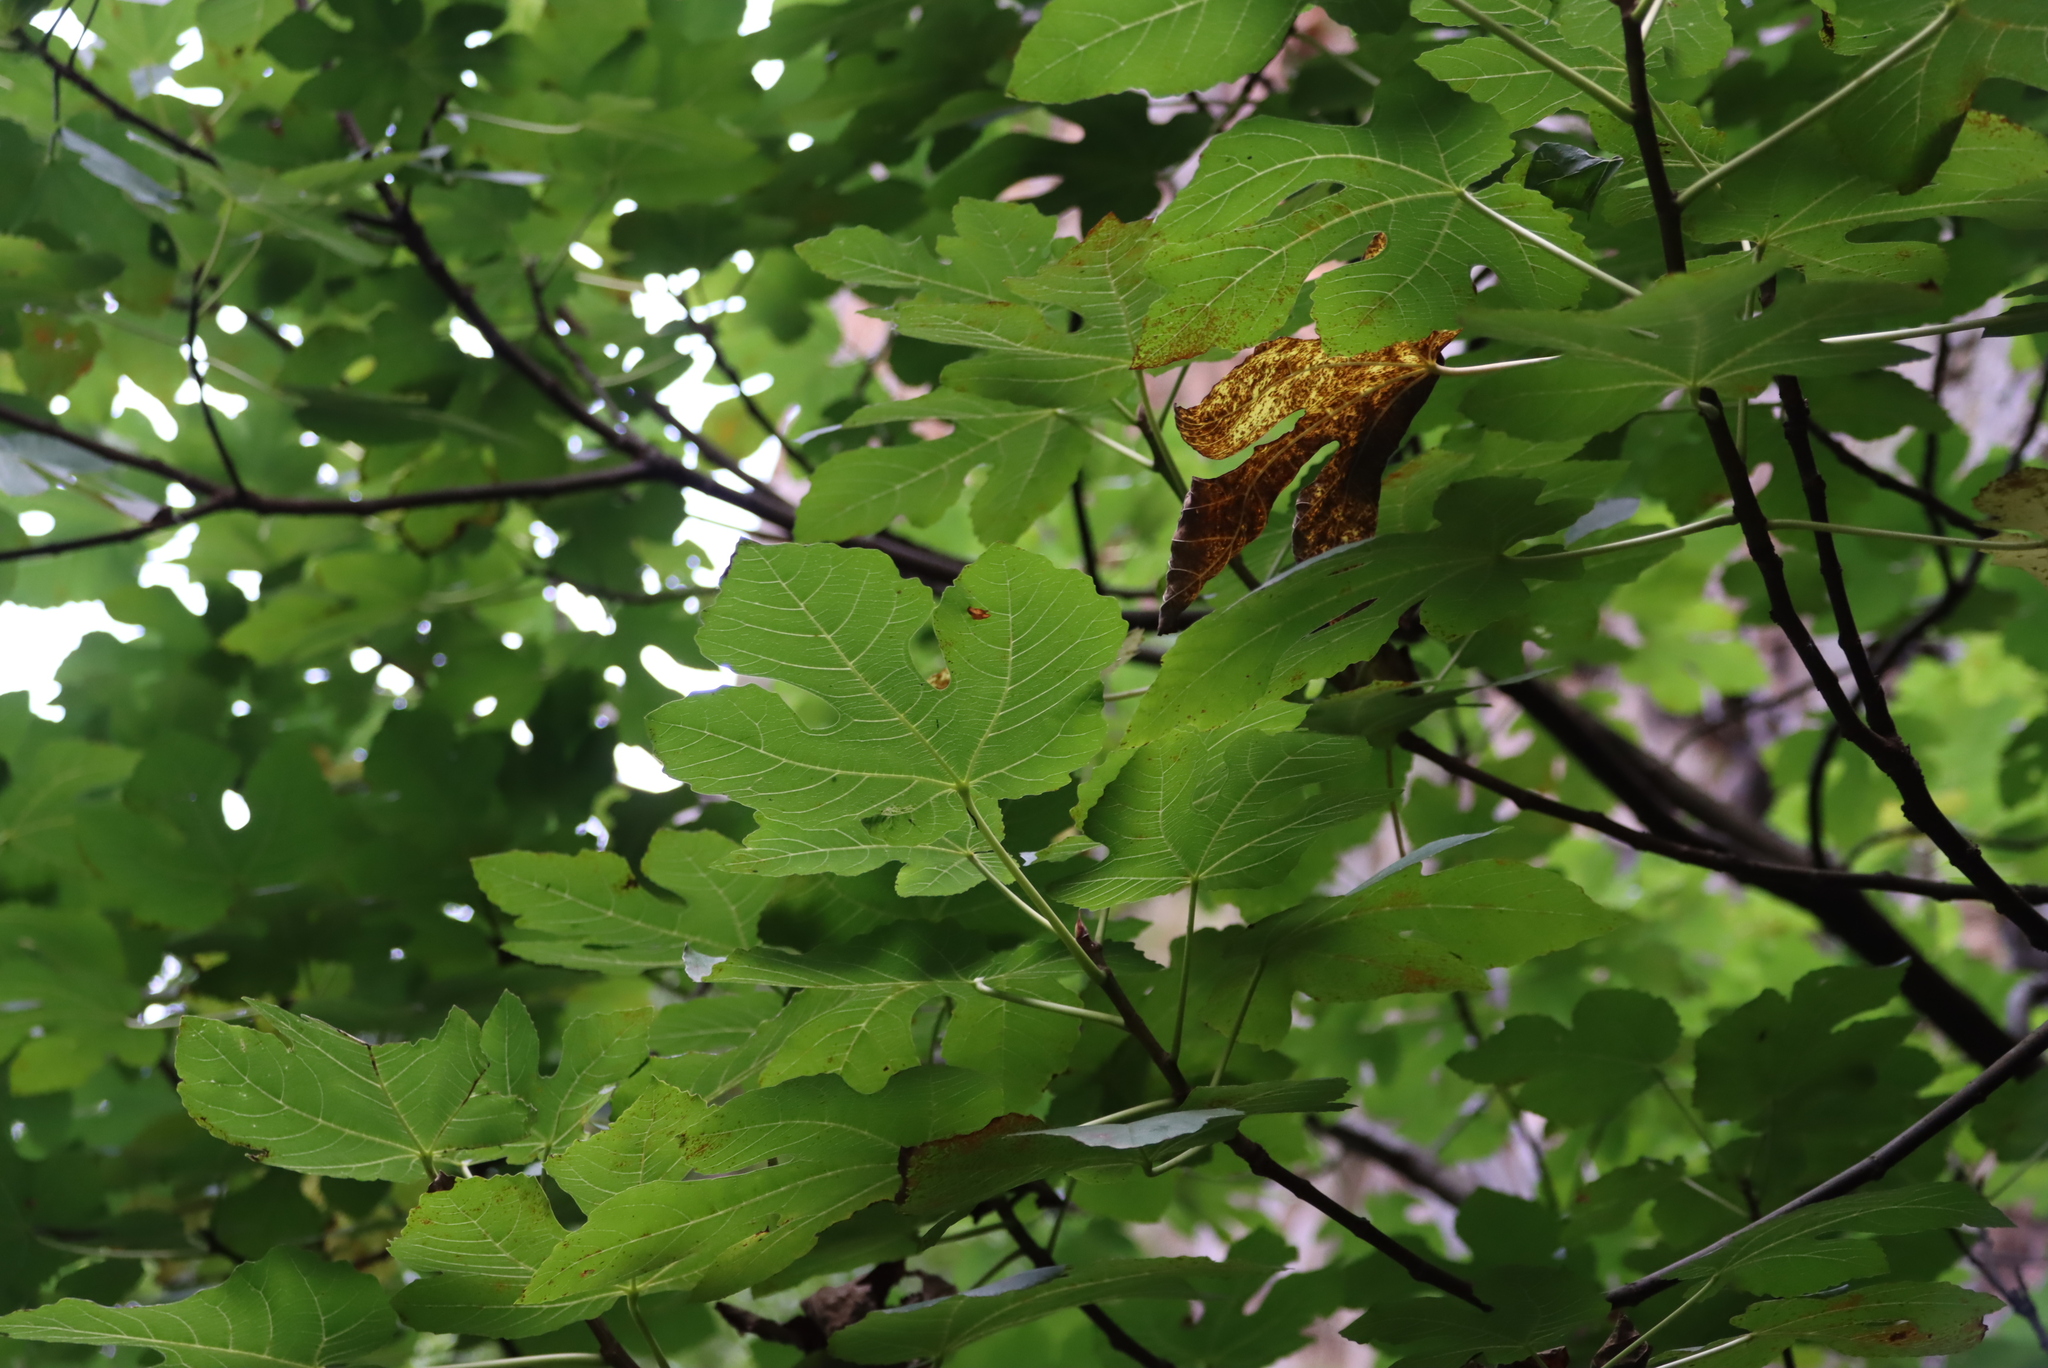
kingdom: Plantae
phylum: Tracheophyta
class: Magnoliopsida
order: Rosales
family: Moraceae
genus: Ficus
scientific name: Ficus carica
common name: Fig
